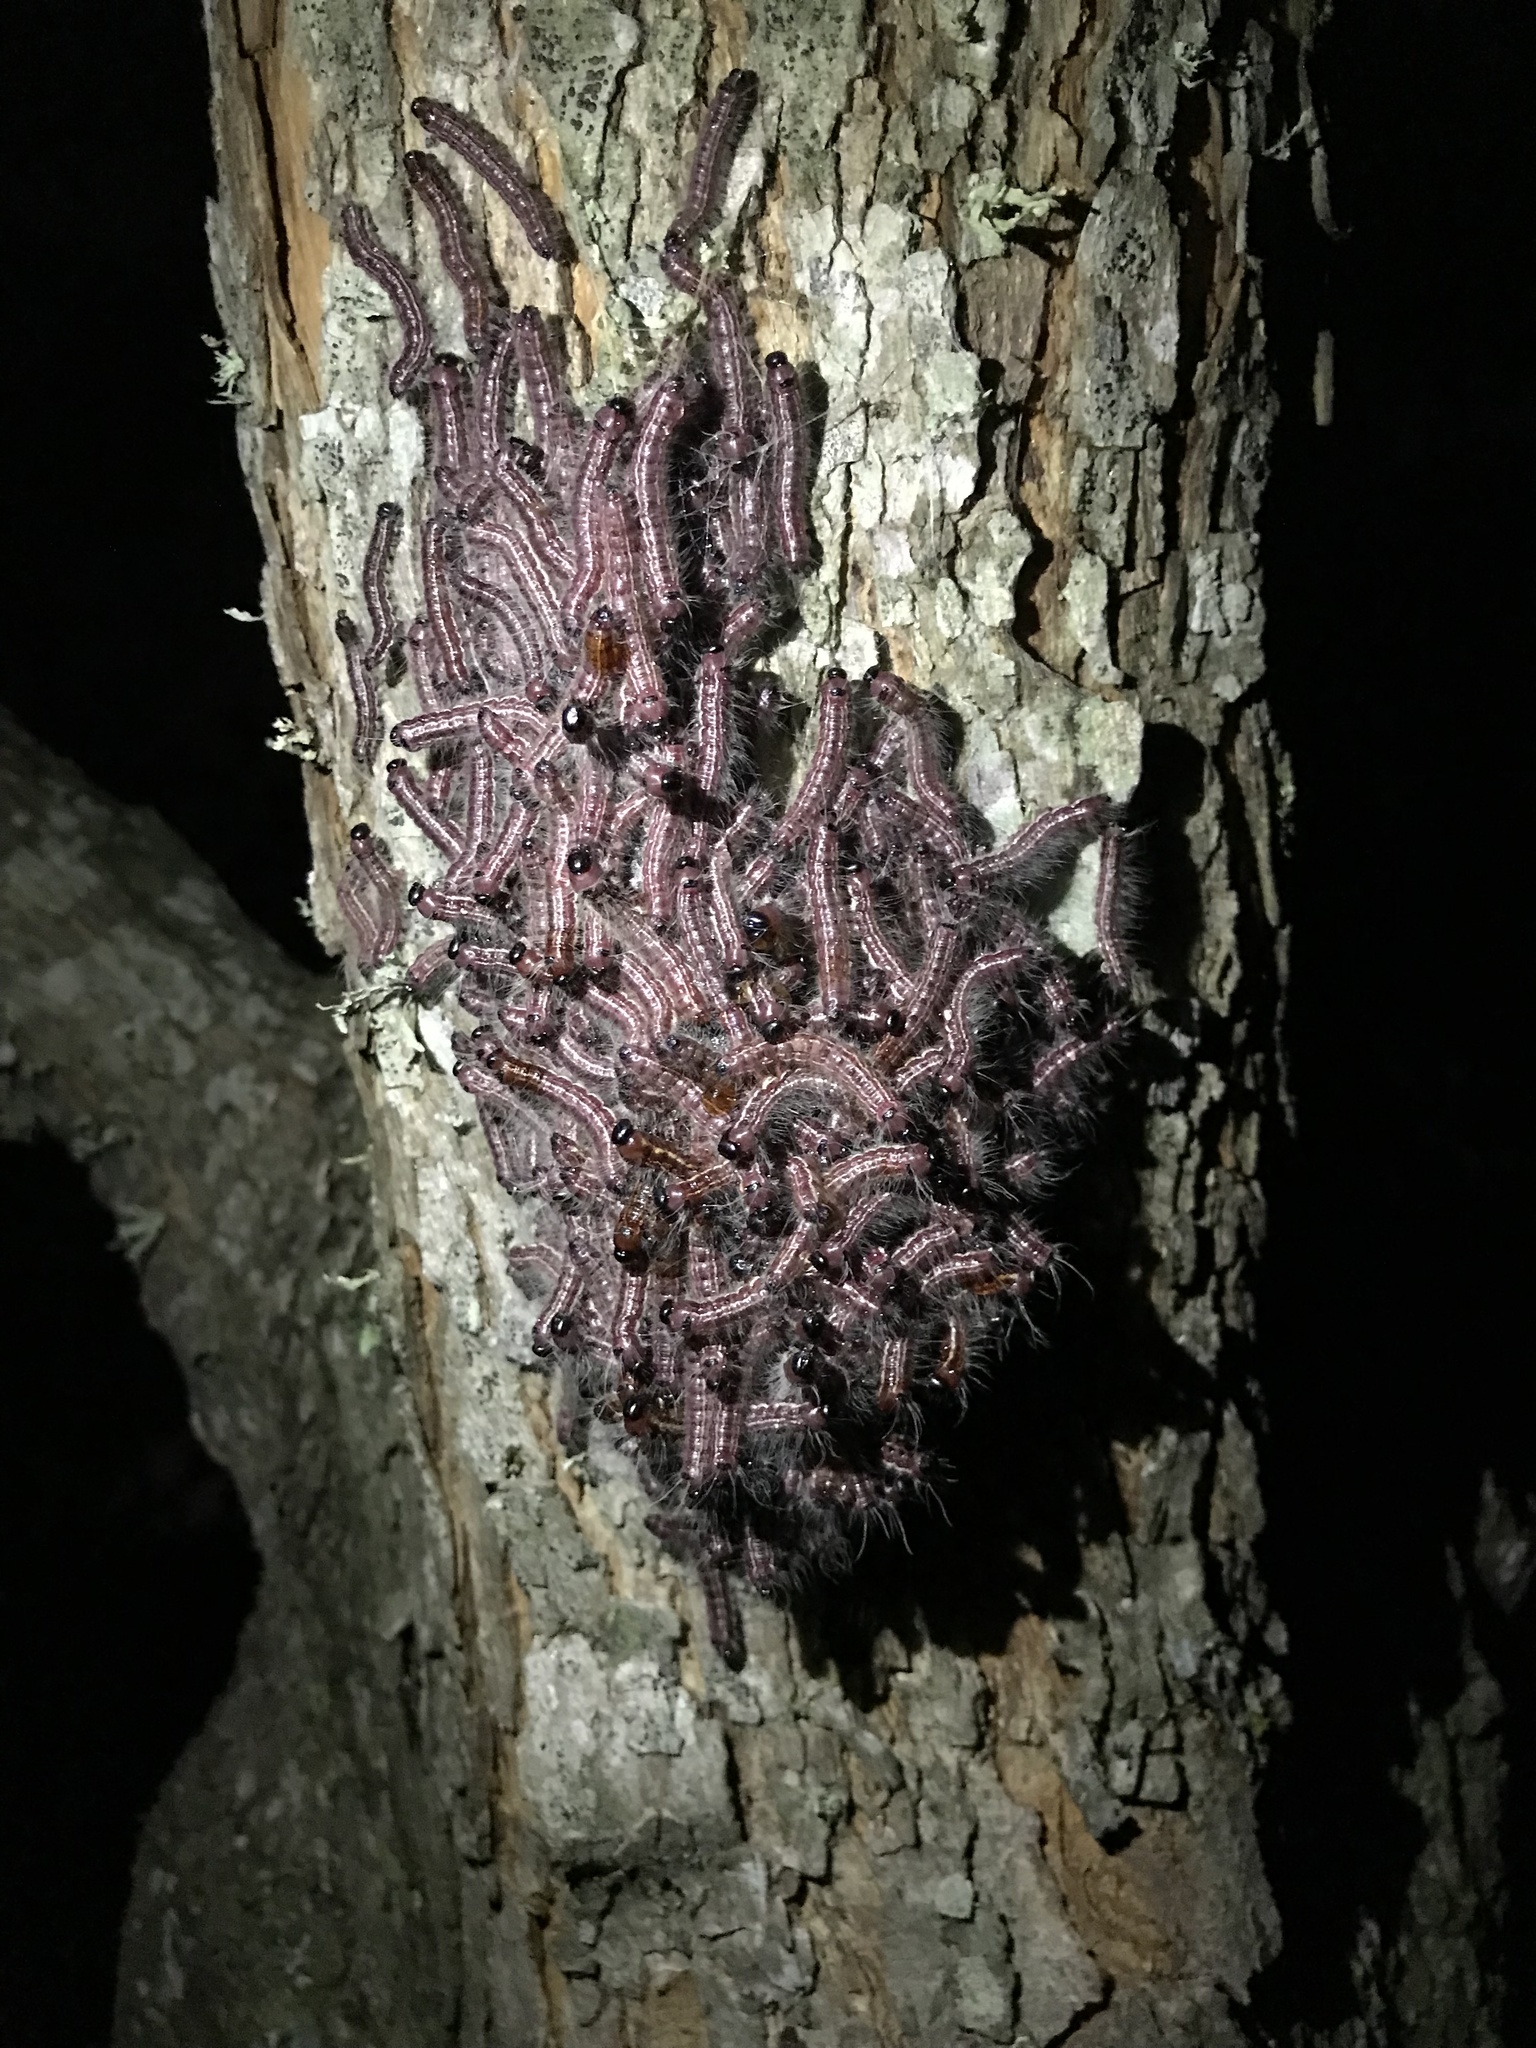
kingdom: Animalia
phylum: Arthropoda
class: Insecta
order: Lepidoptera
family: Notodontidae
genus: Datana
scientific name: Datana integerrima
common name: Walnut caterpillar
